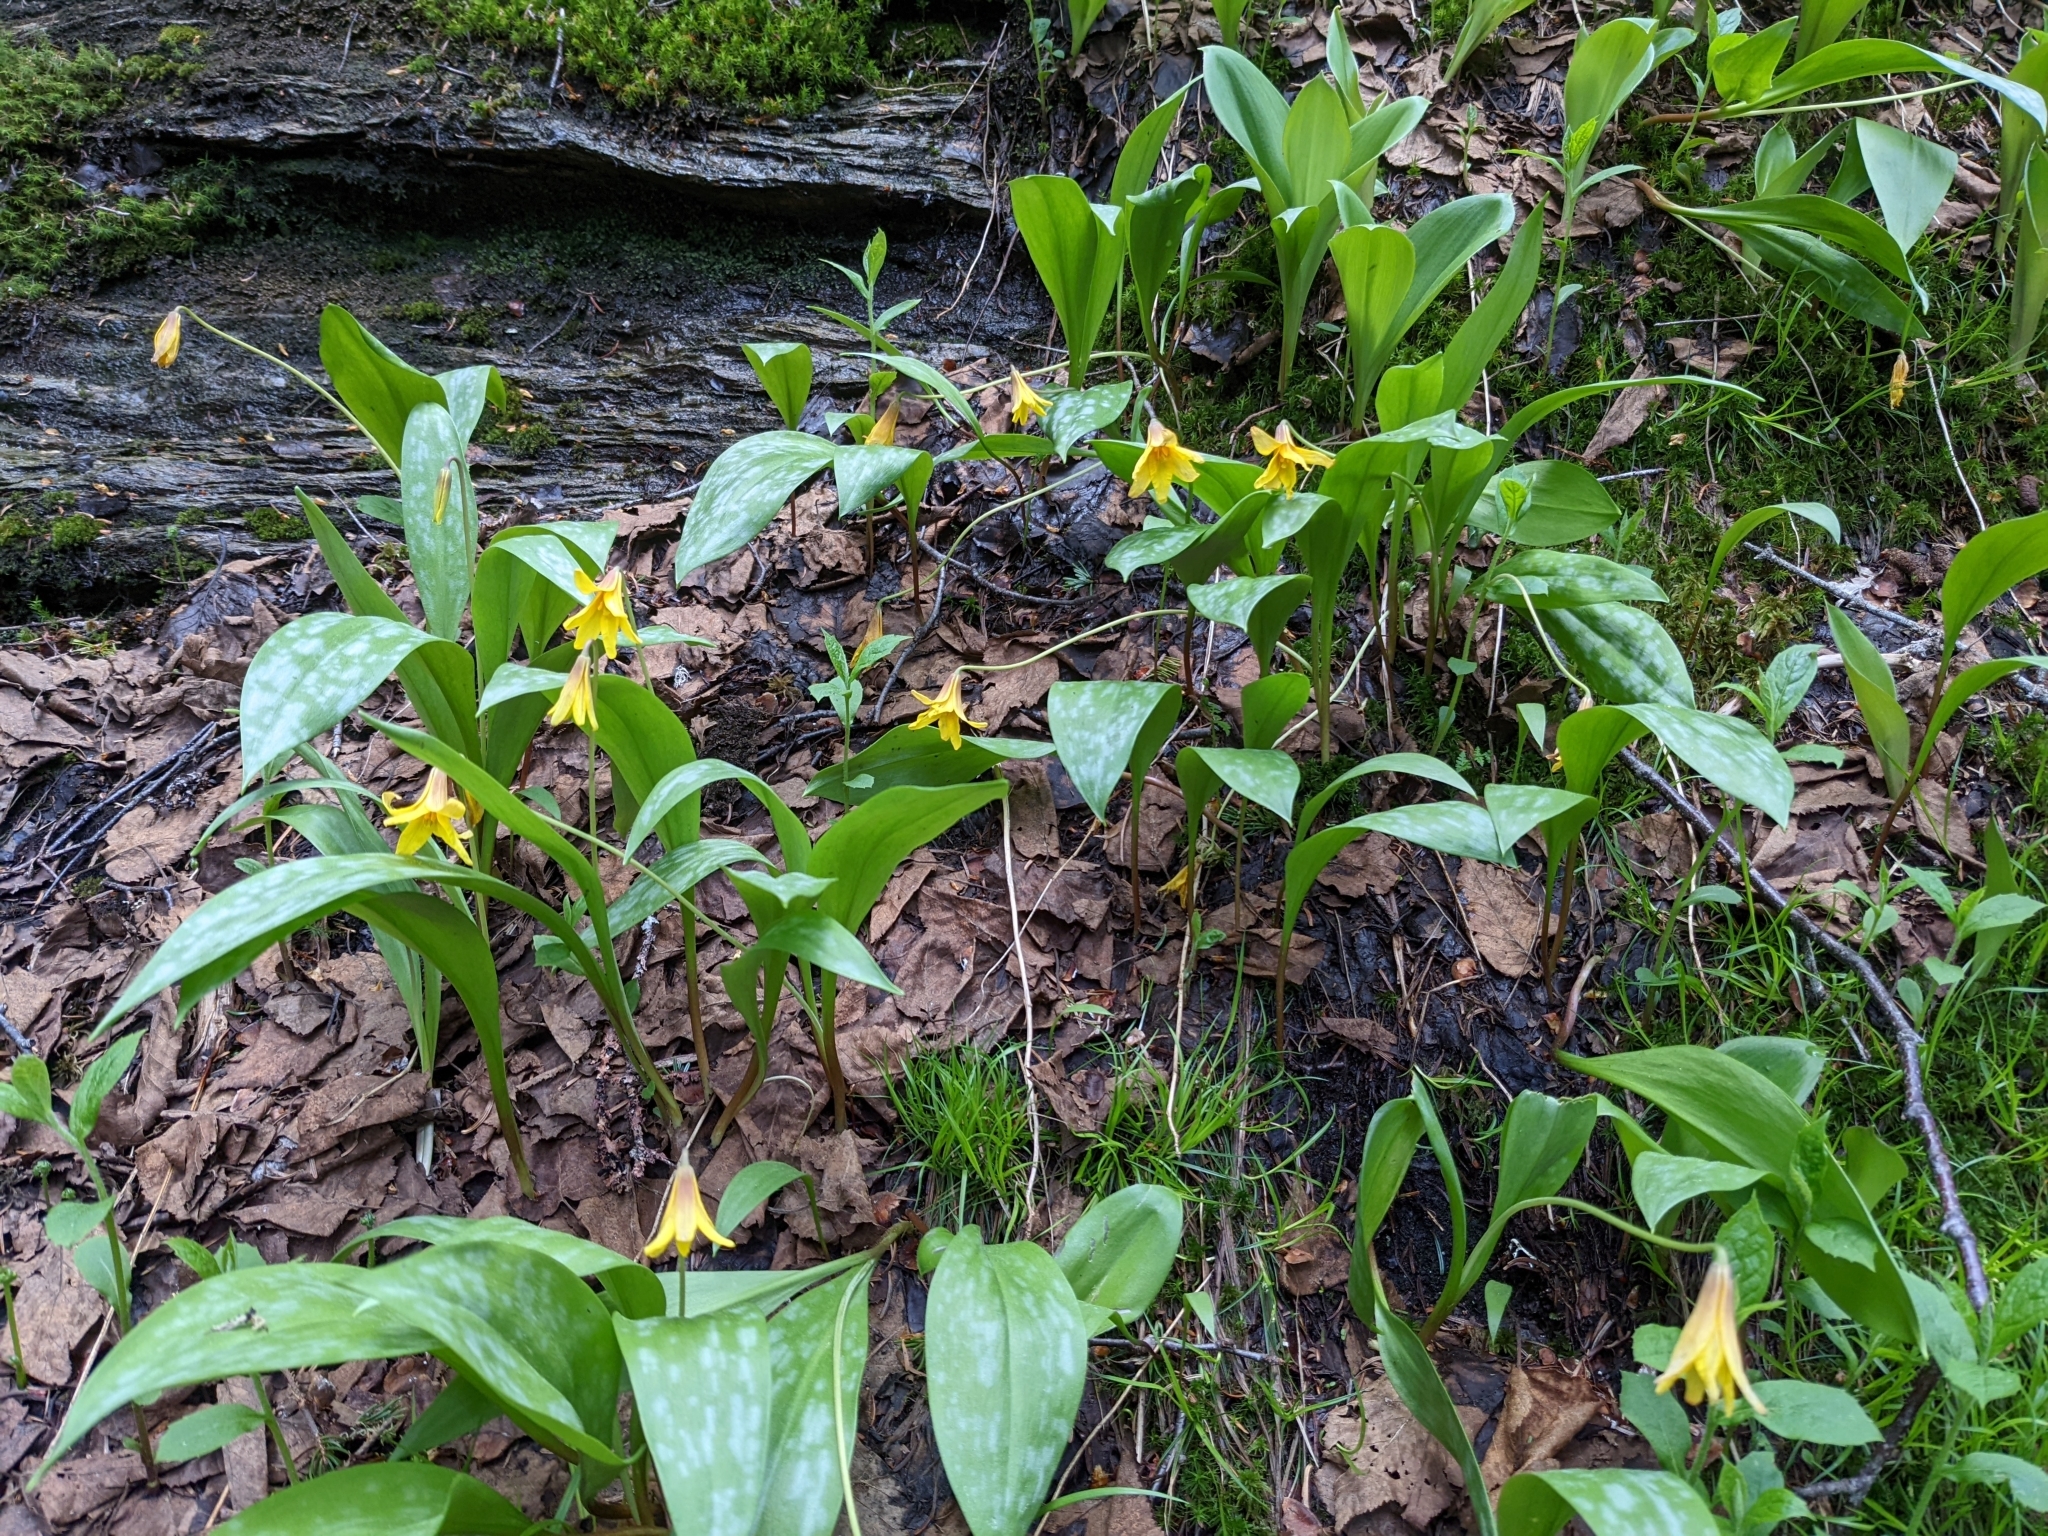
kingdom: Plantae
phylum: Tracheophyta
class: Liliopsida
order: Liliales
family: Liliaceae
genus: Erythronium
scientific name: Erythronium americanum
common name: Yellow adder's-tongue
